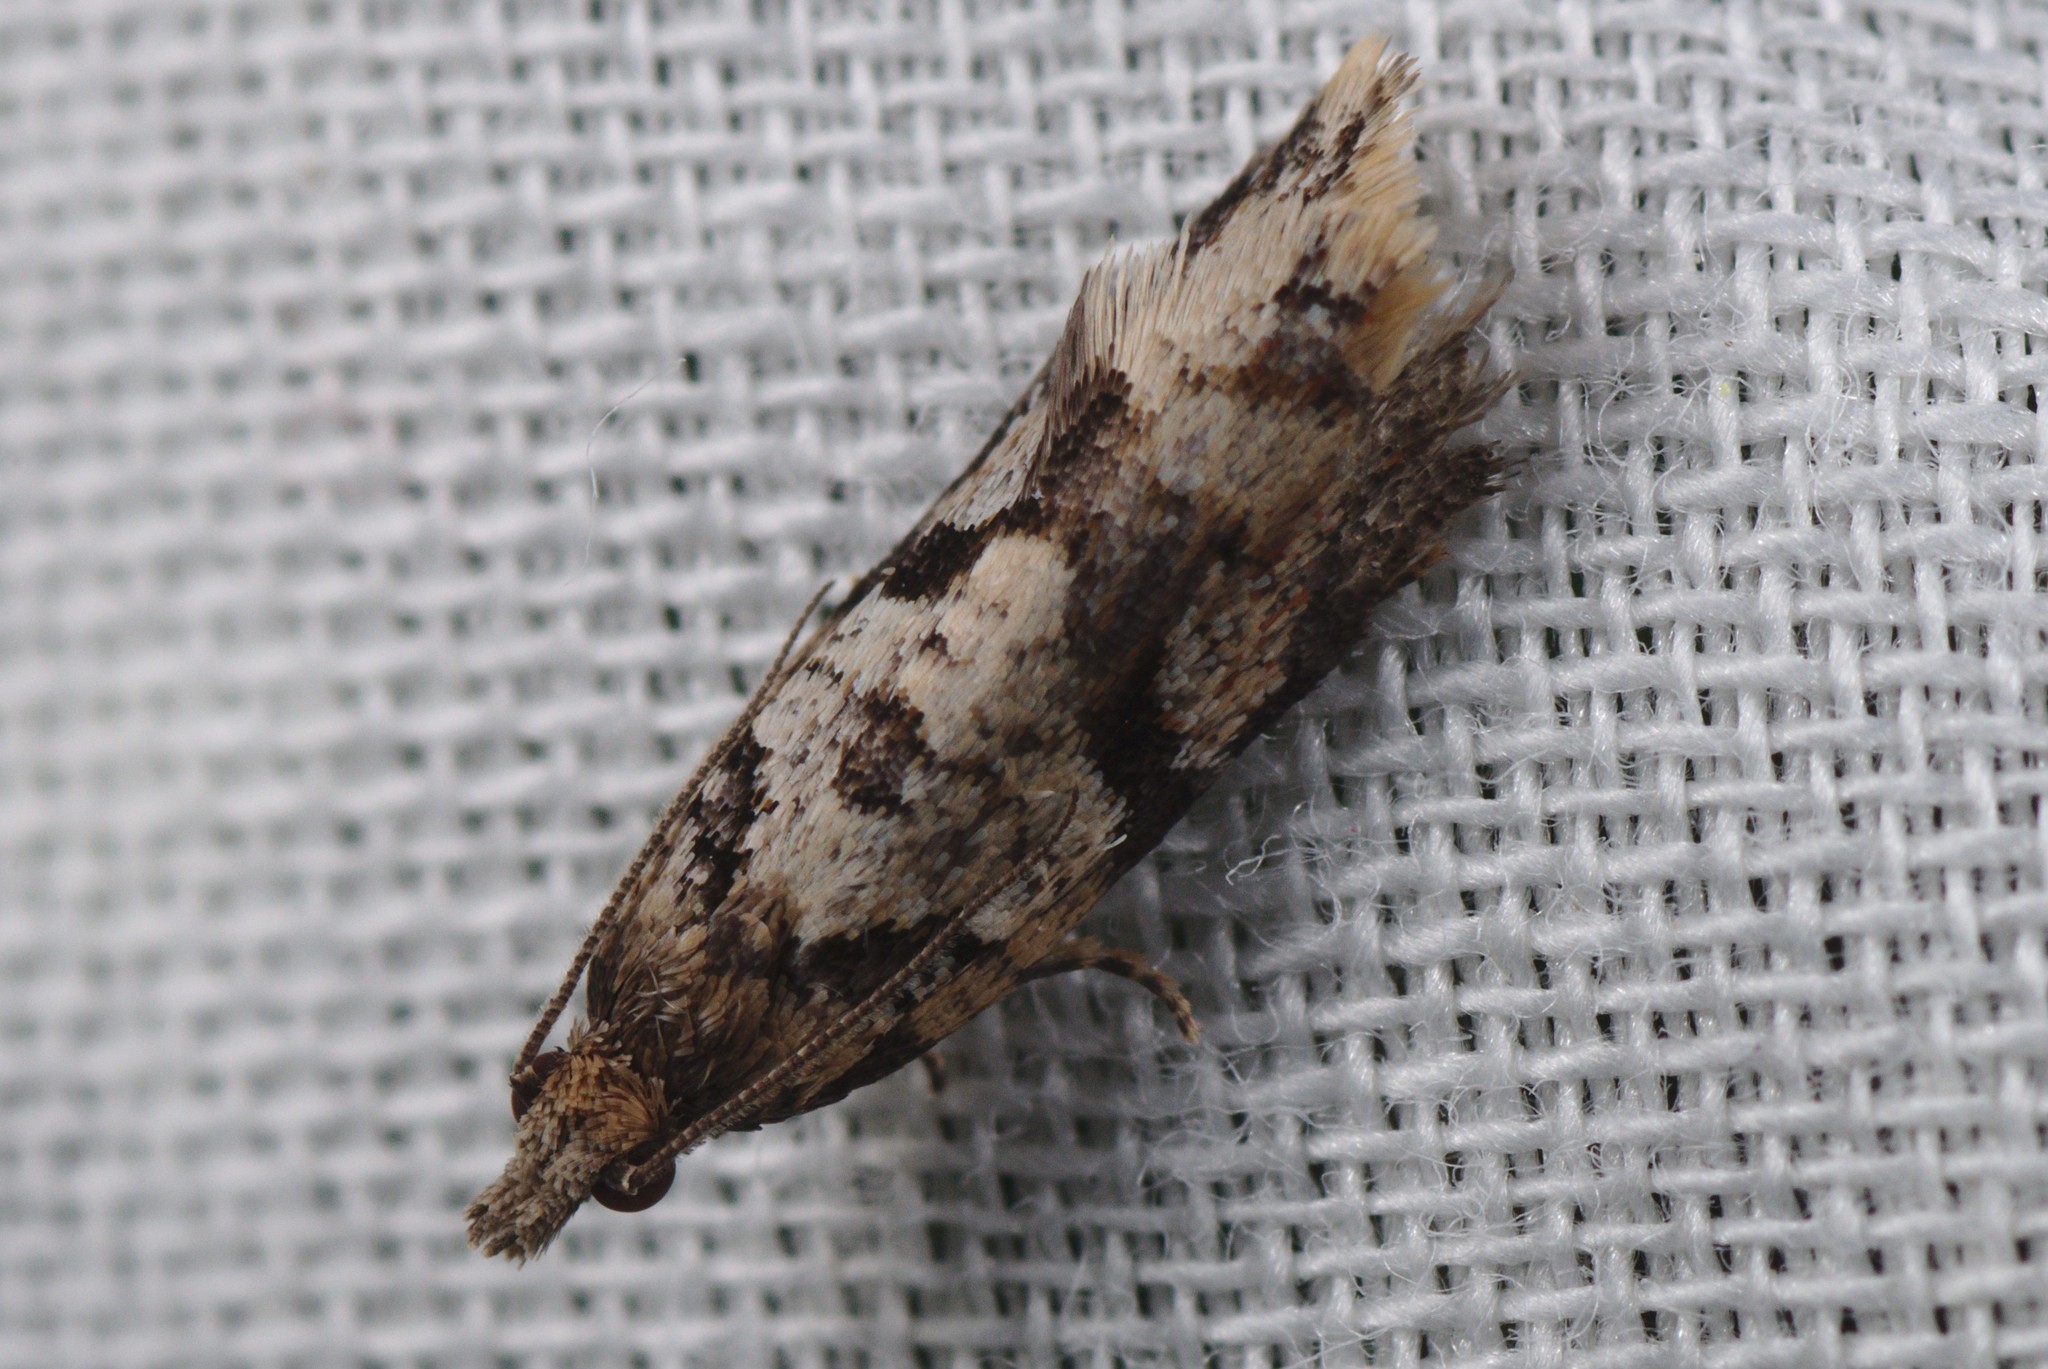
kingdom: Animalia
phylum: Arthropoda
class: Insecta
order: Lepidoptera
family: Tortricidae
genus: Capua
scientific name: Capua semiferana
